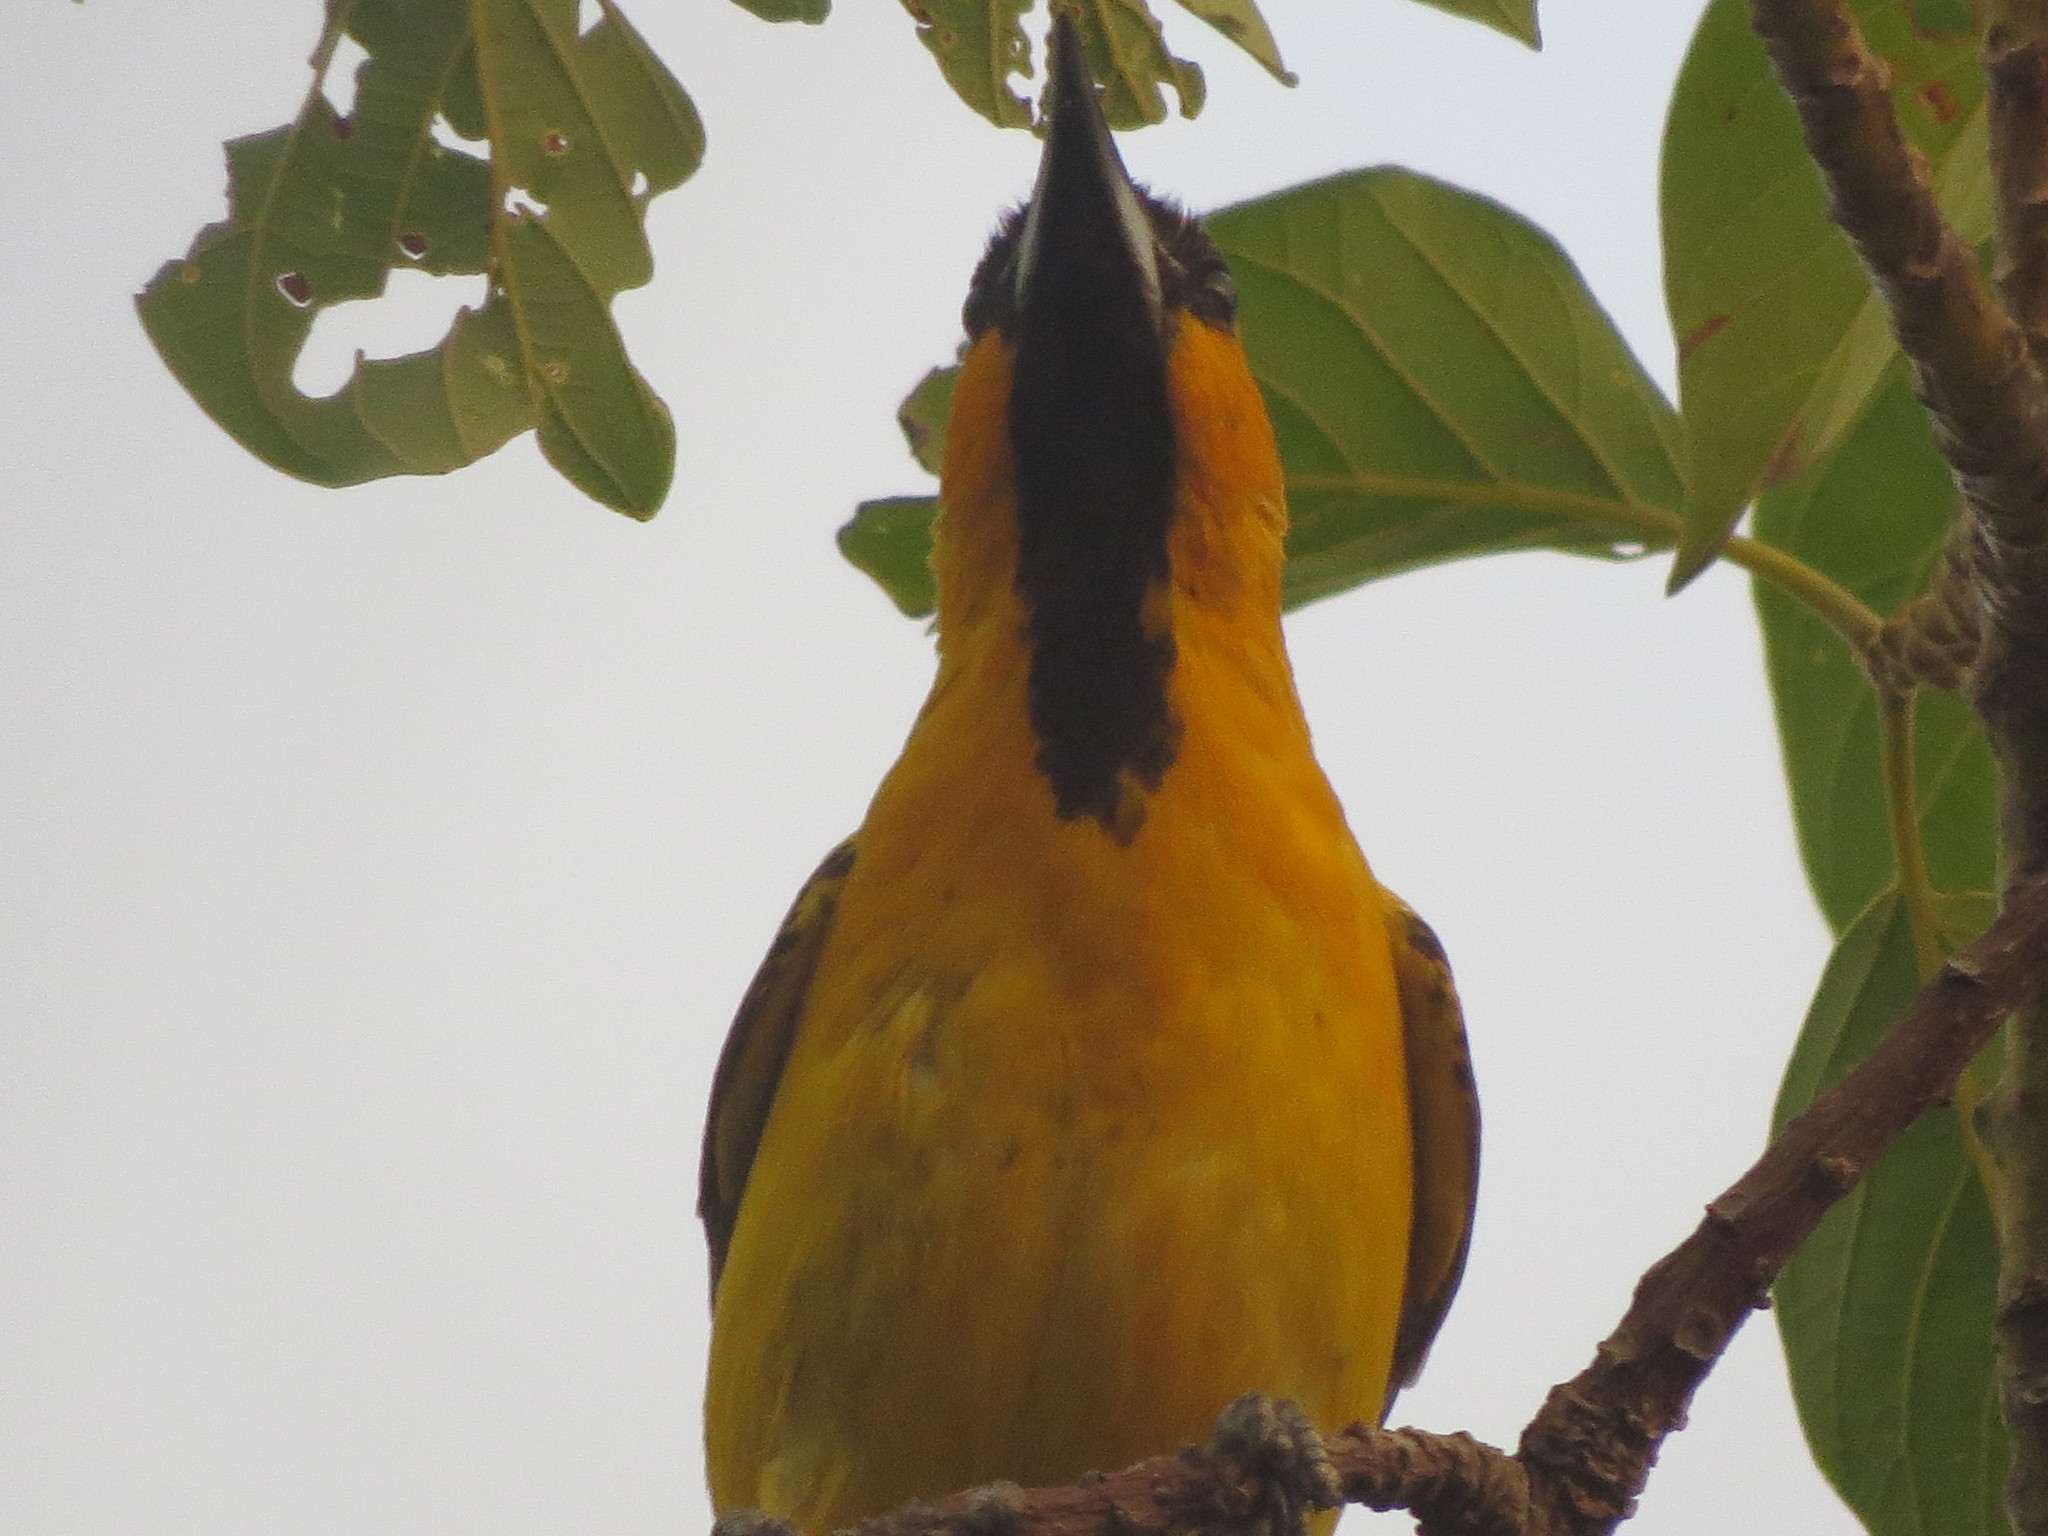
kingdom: Animalia
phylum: Chordata
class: Aves
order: Passeriformes
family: Icteridae
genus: Icterus
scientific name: Icterus pustulatus
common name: Streak-backed oriole
